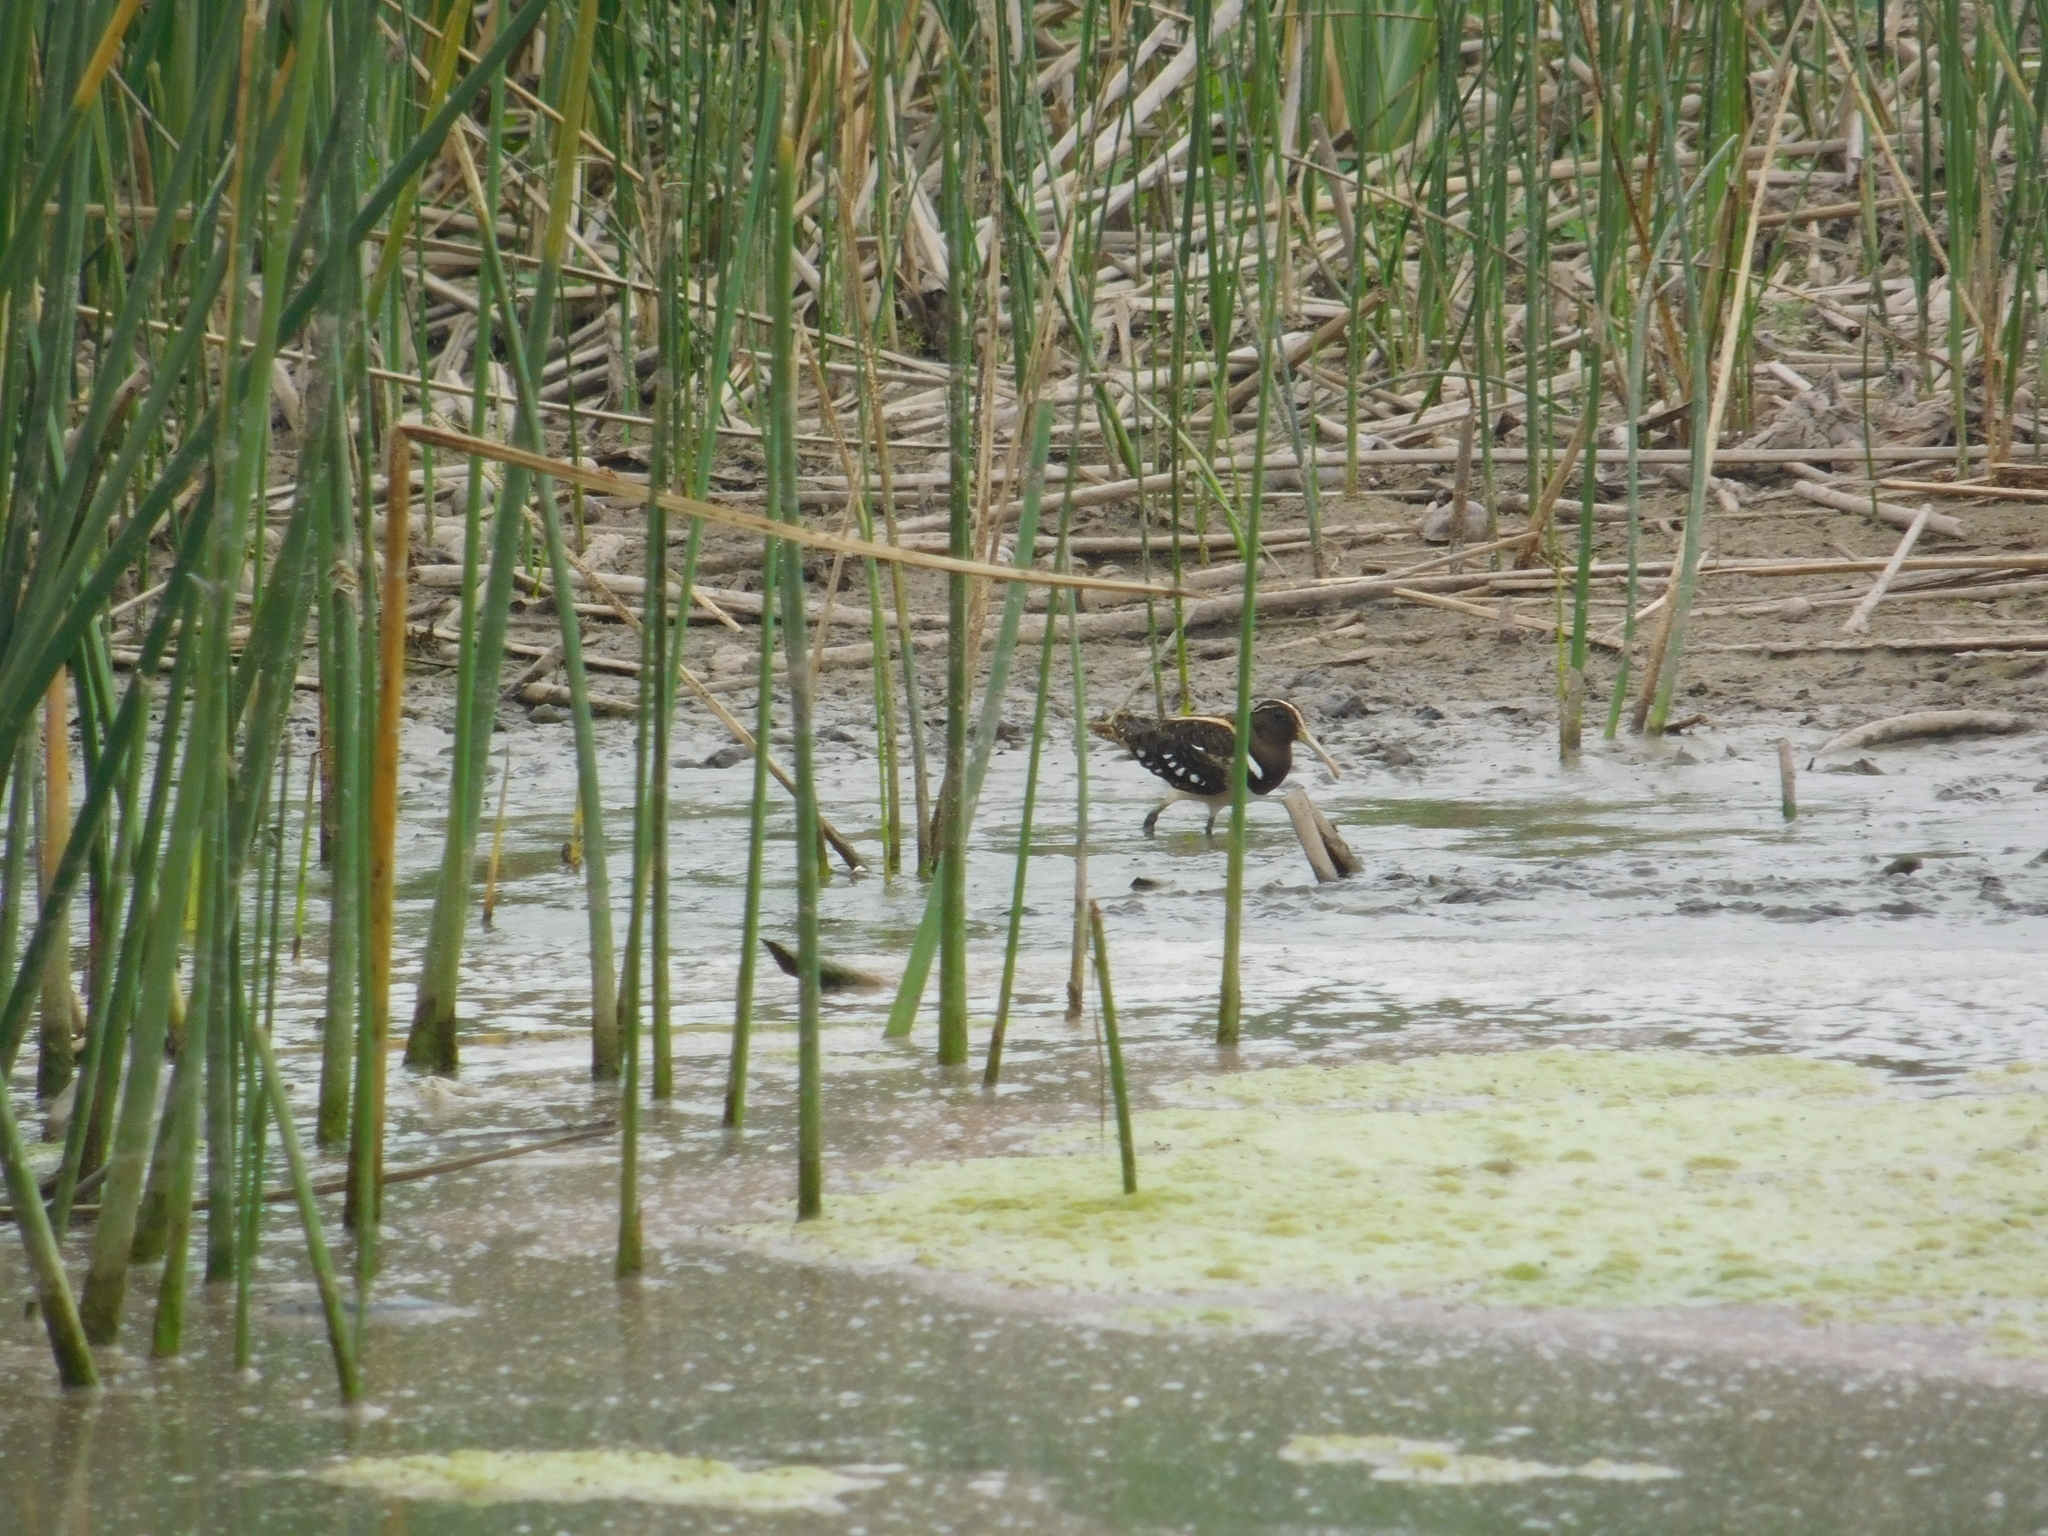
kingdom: Animalia
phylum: Chordata
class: Aves
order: Charadriiformes
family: Rostratulidae
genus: Nycticryphes
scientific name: Nycticryphes semicollaris
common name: South american painted-snipe
